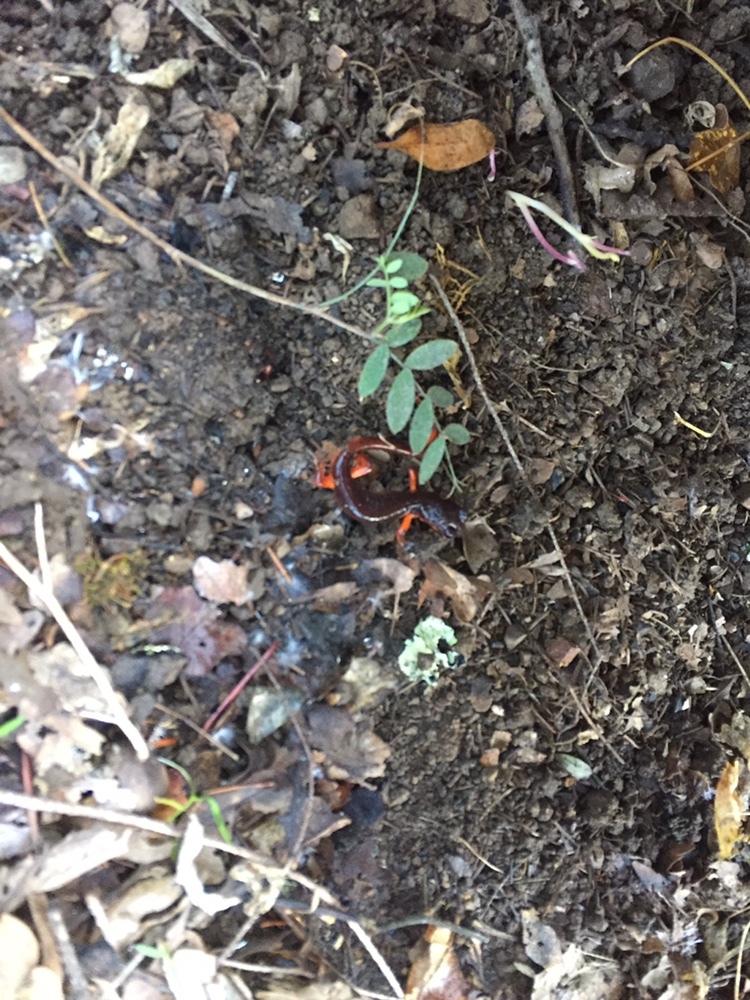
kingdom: Animalia
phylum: Chordata
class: Amphibia
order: Caudata
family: Plethodontidae
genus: Ensatina
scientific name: Ensatina eschscholtzii
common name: Ensatina
